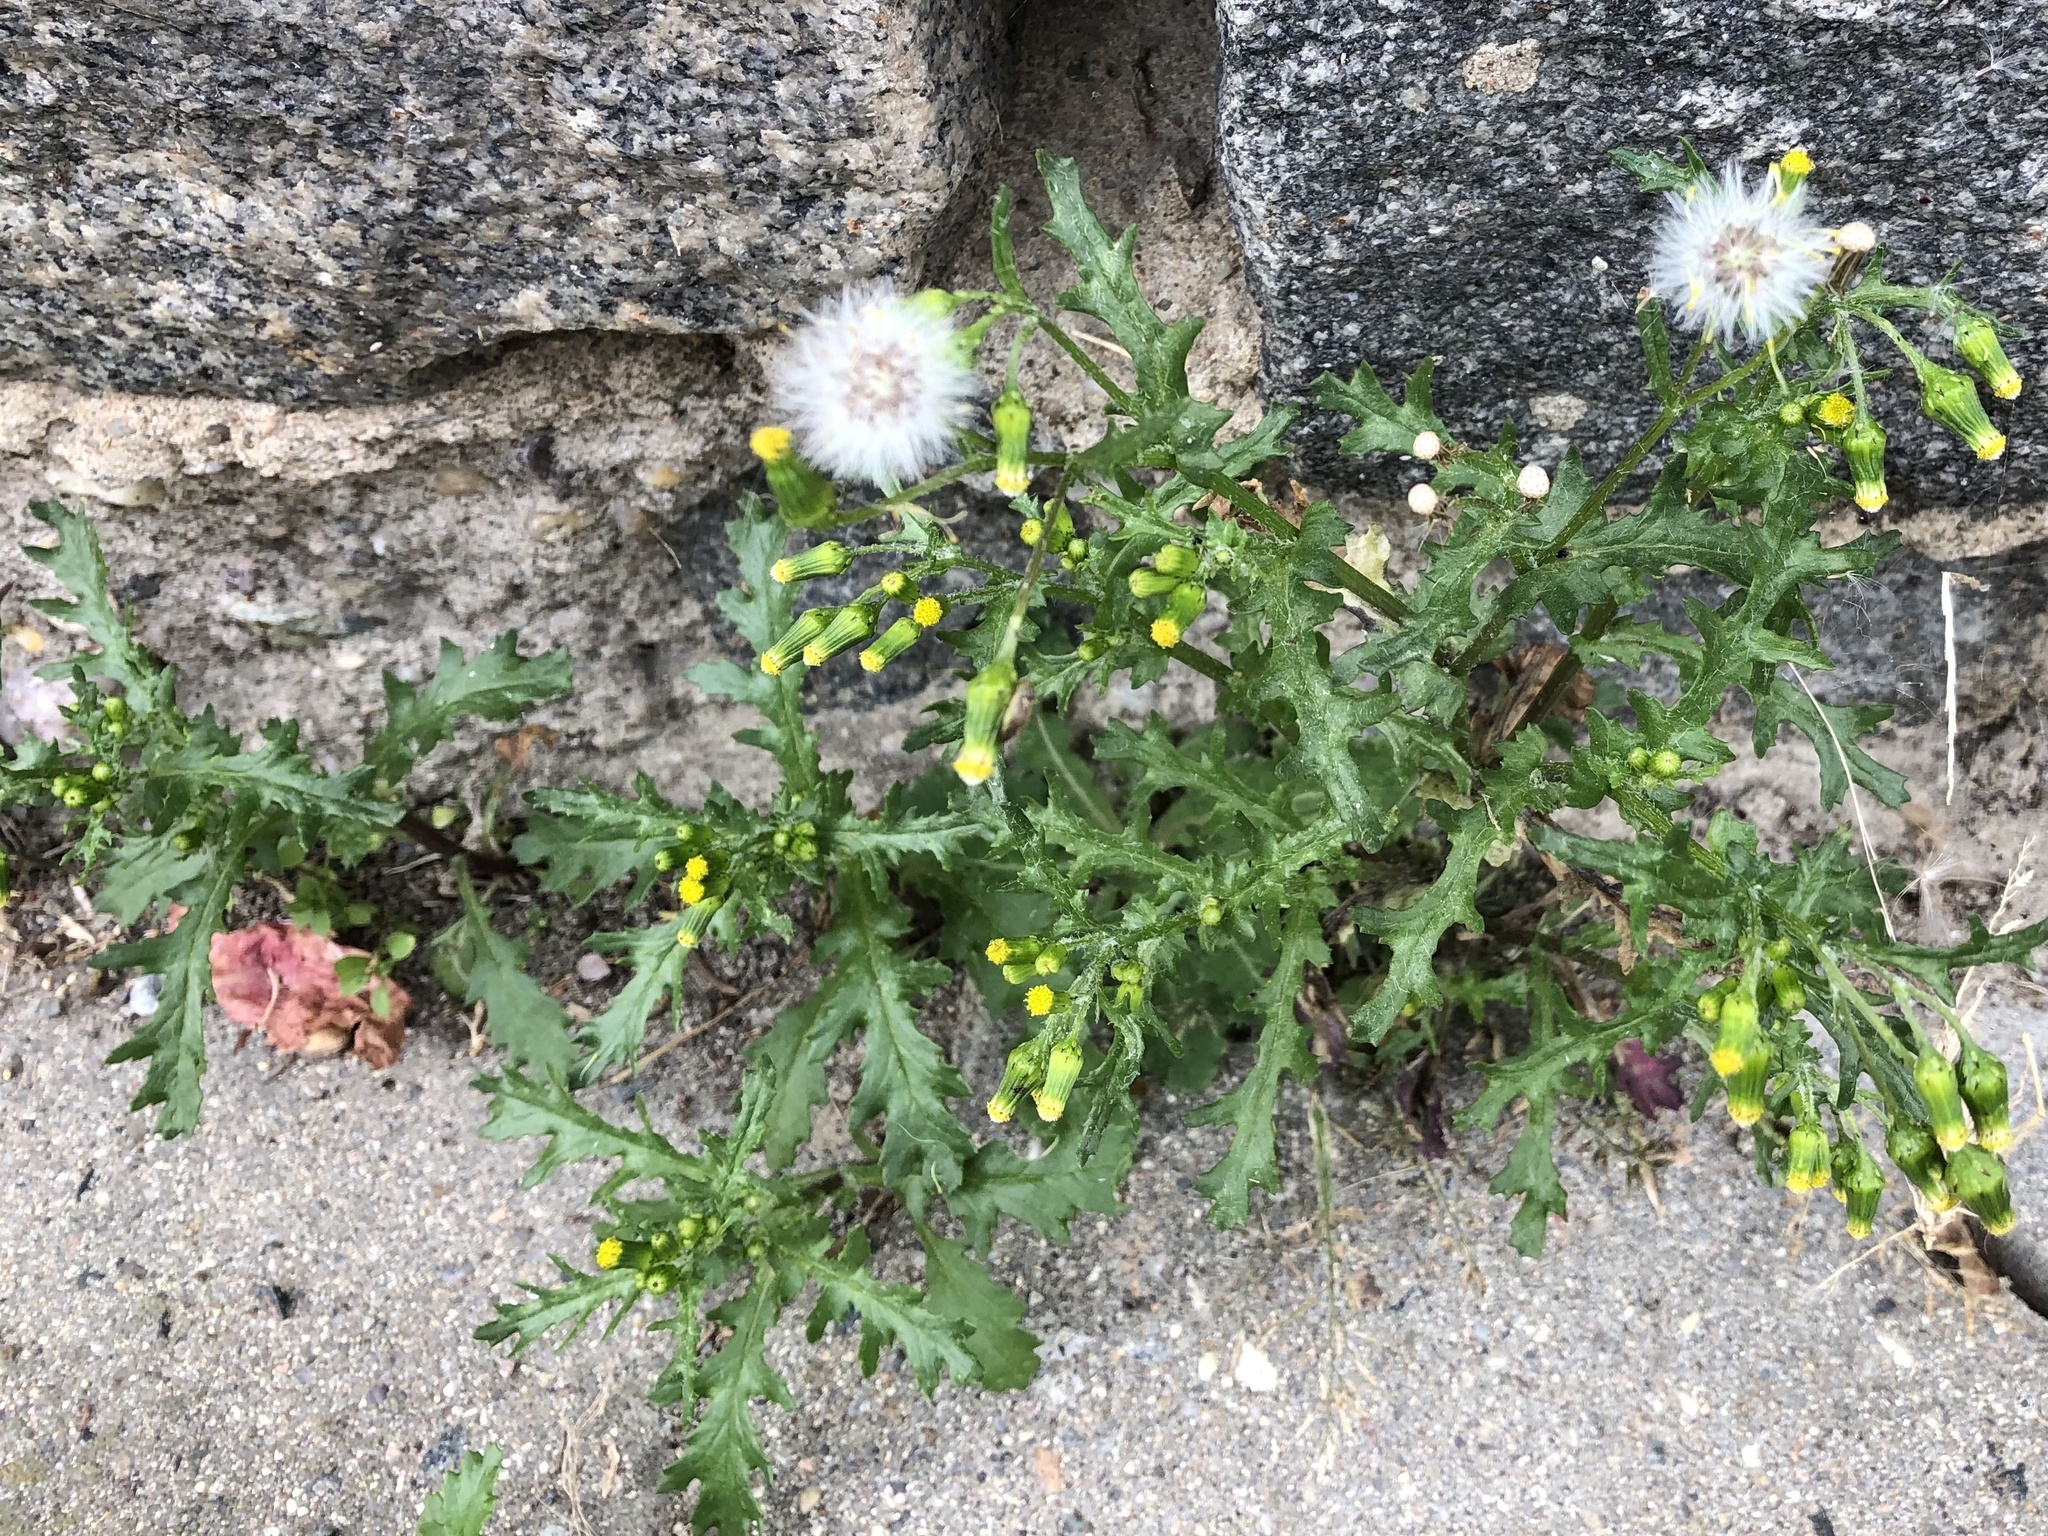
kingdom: Plantae
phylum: Tracheophyta
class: Magnoliopsida
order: Asterales
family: Asteraceae
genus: Senecio
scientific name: Senecio vulgaris
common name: Old-man-in-the-spring
